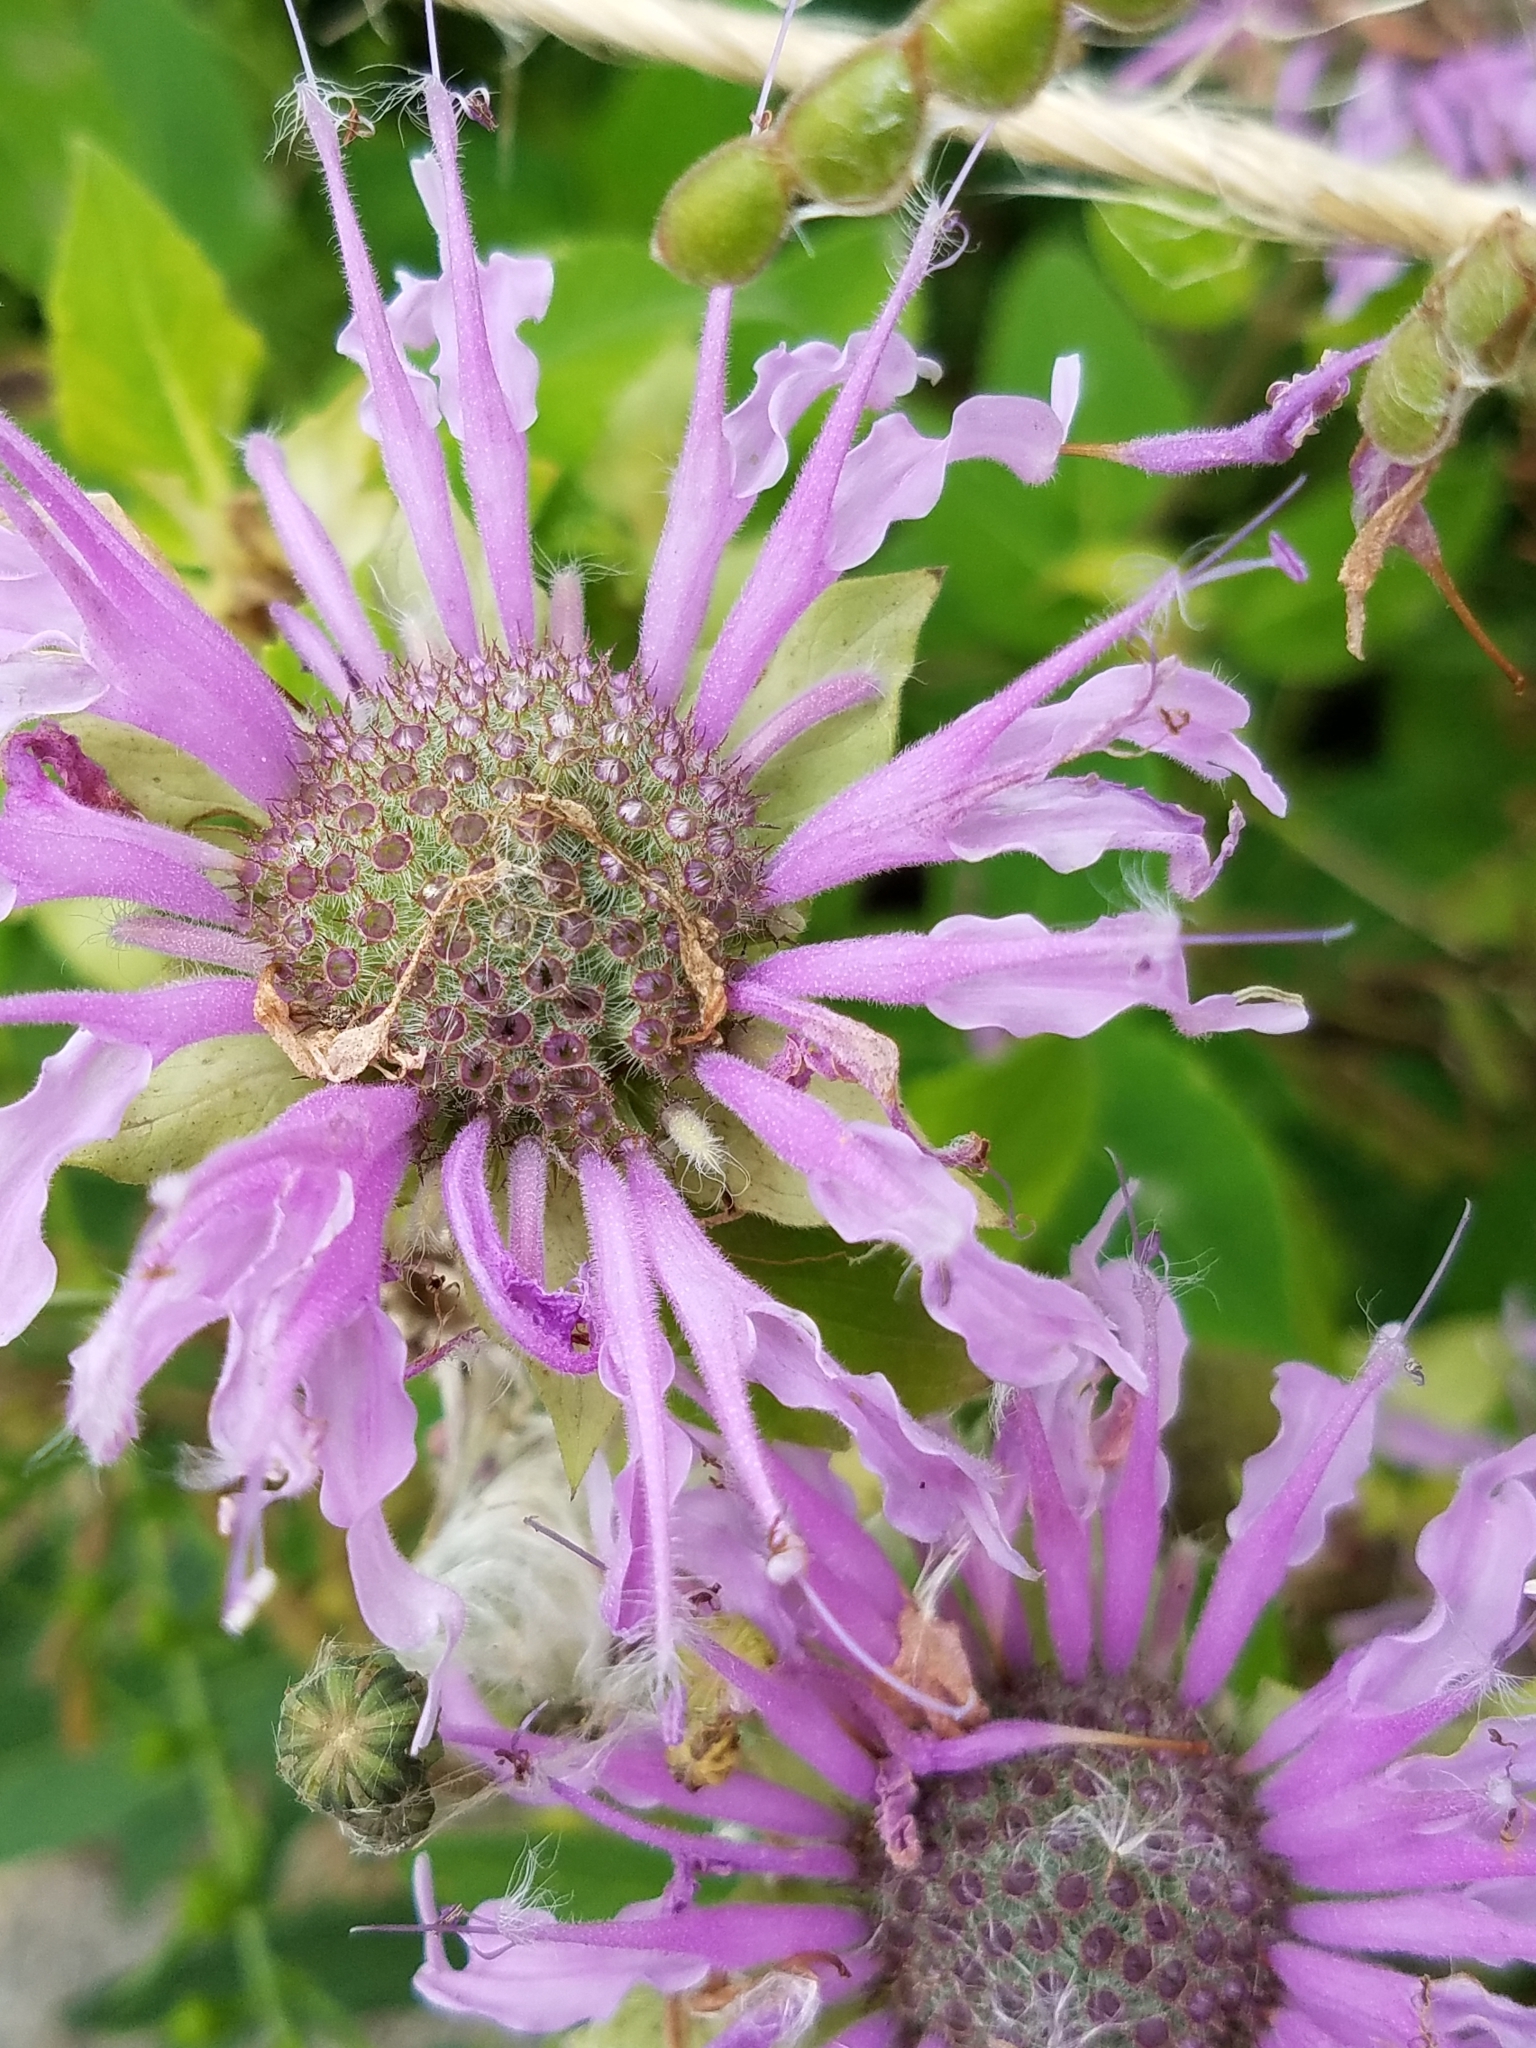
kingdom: Plantae
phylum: Tracheophyta
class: Magnoliopsida
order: Lamiales
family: Lamiaceae
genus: Monarda
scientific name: Monarda fistulosa
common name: Purple beebalm
